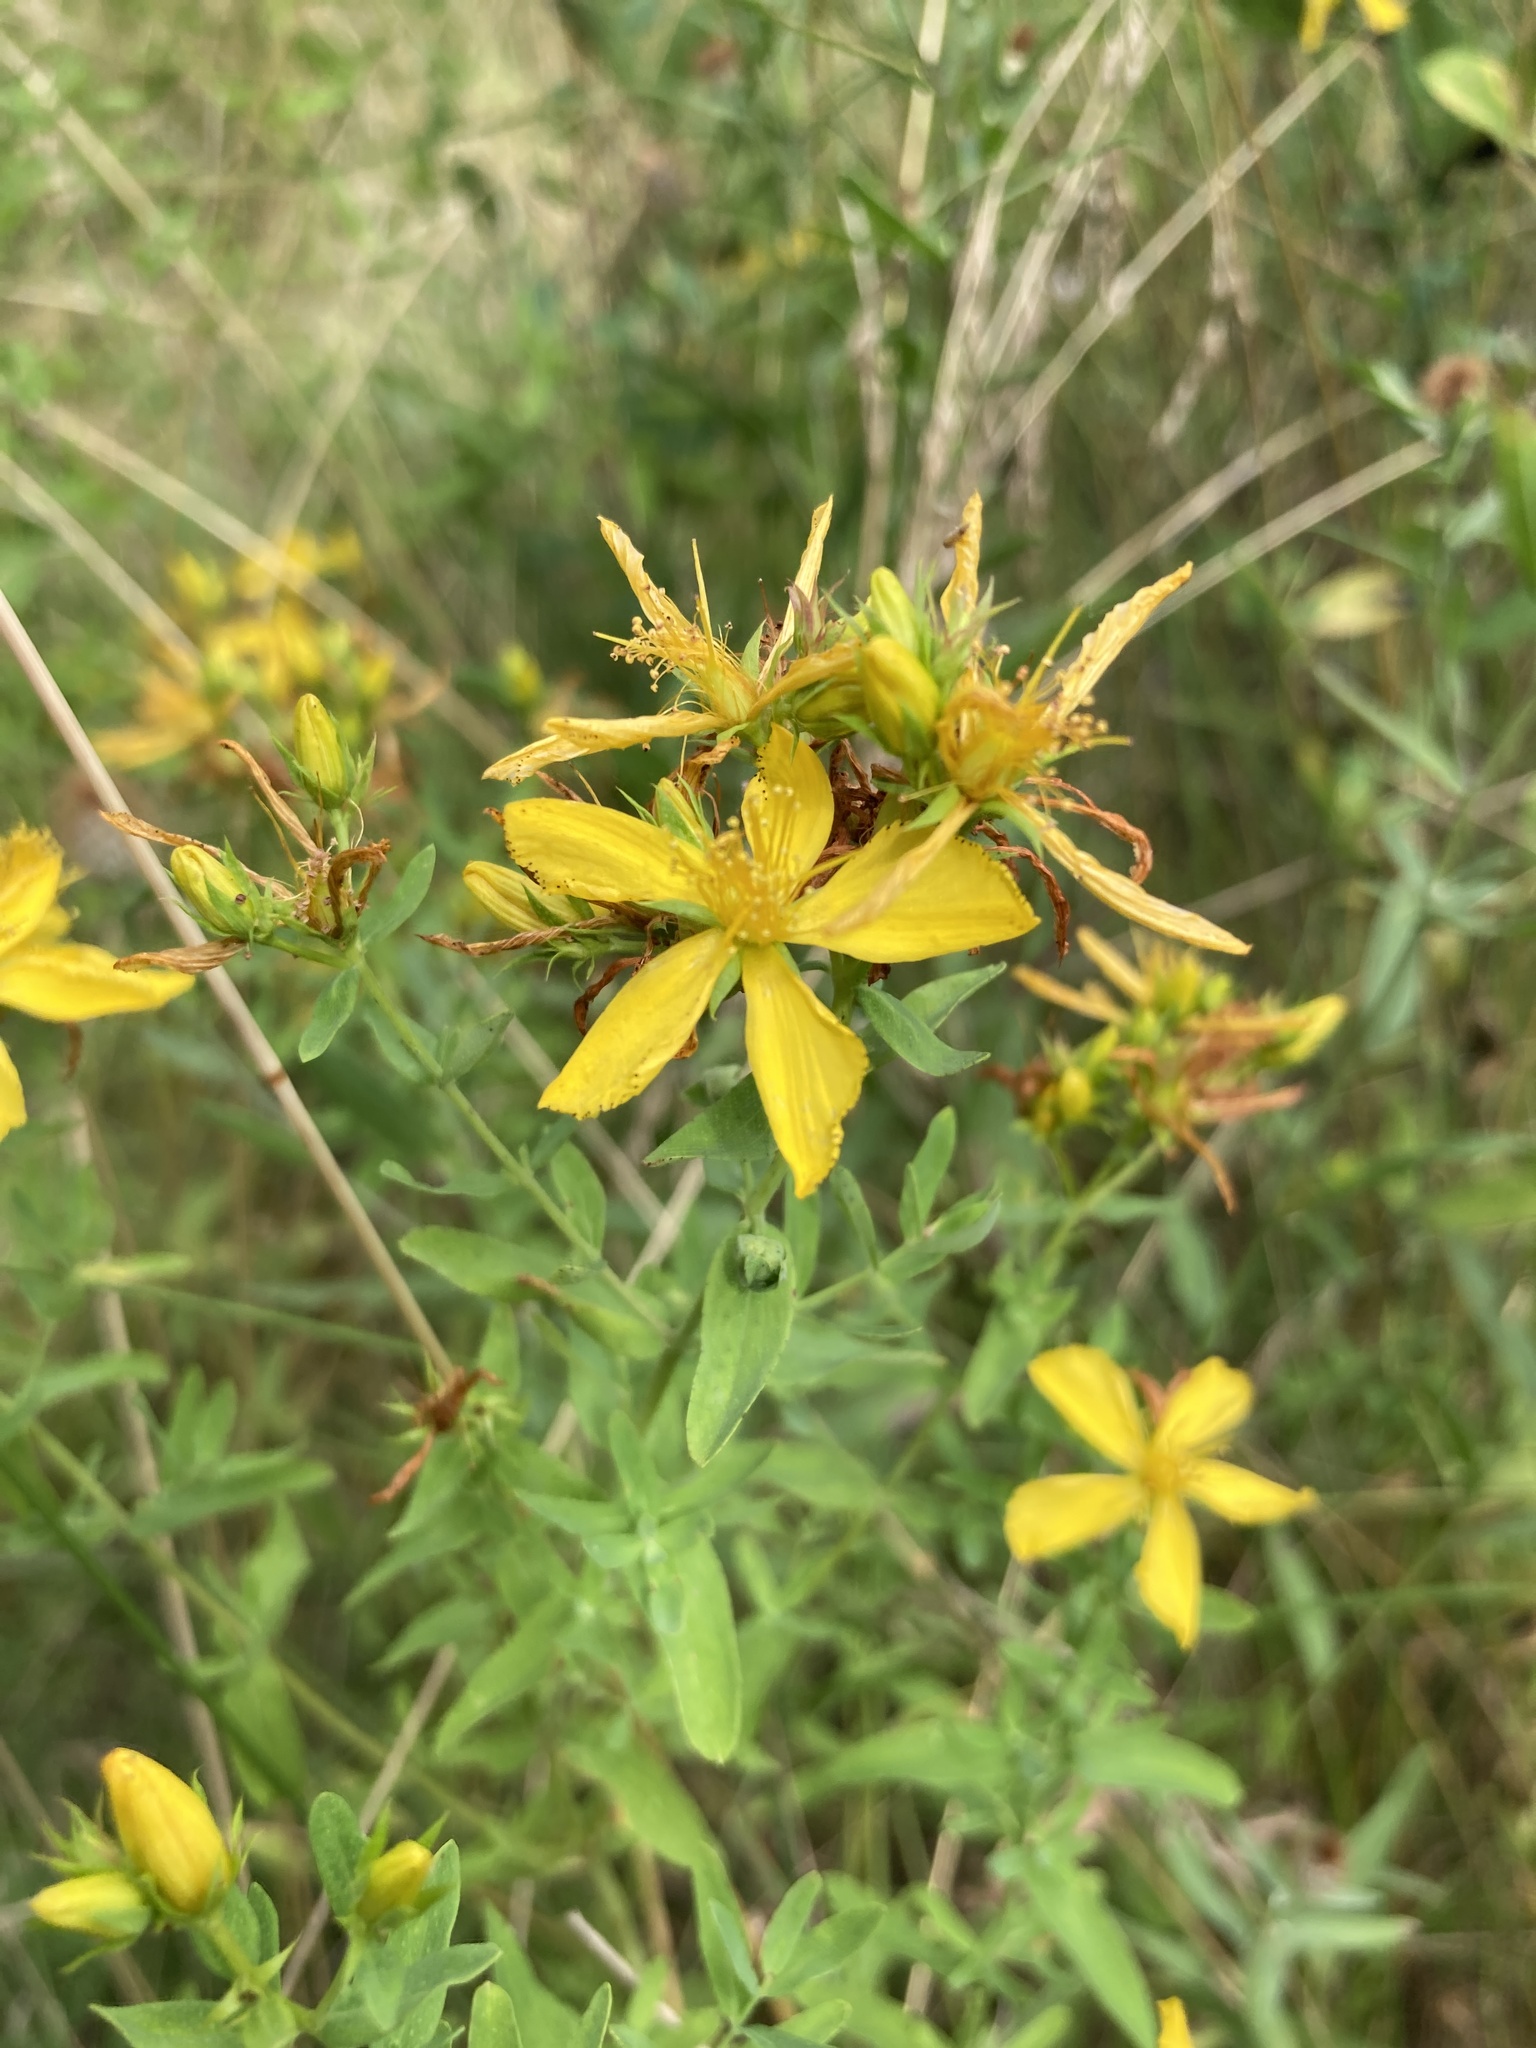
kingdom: Plantae
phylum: Tracheophyta
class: Magnoliopsida
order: Malpighiales
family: Hypericaceae
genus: Hypericum
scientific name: Hypericum perforatum
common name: Common st. johnswort
